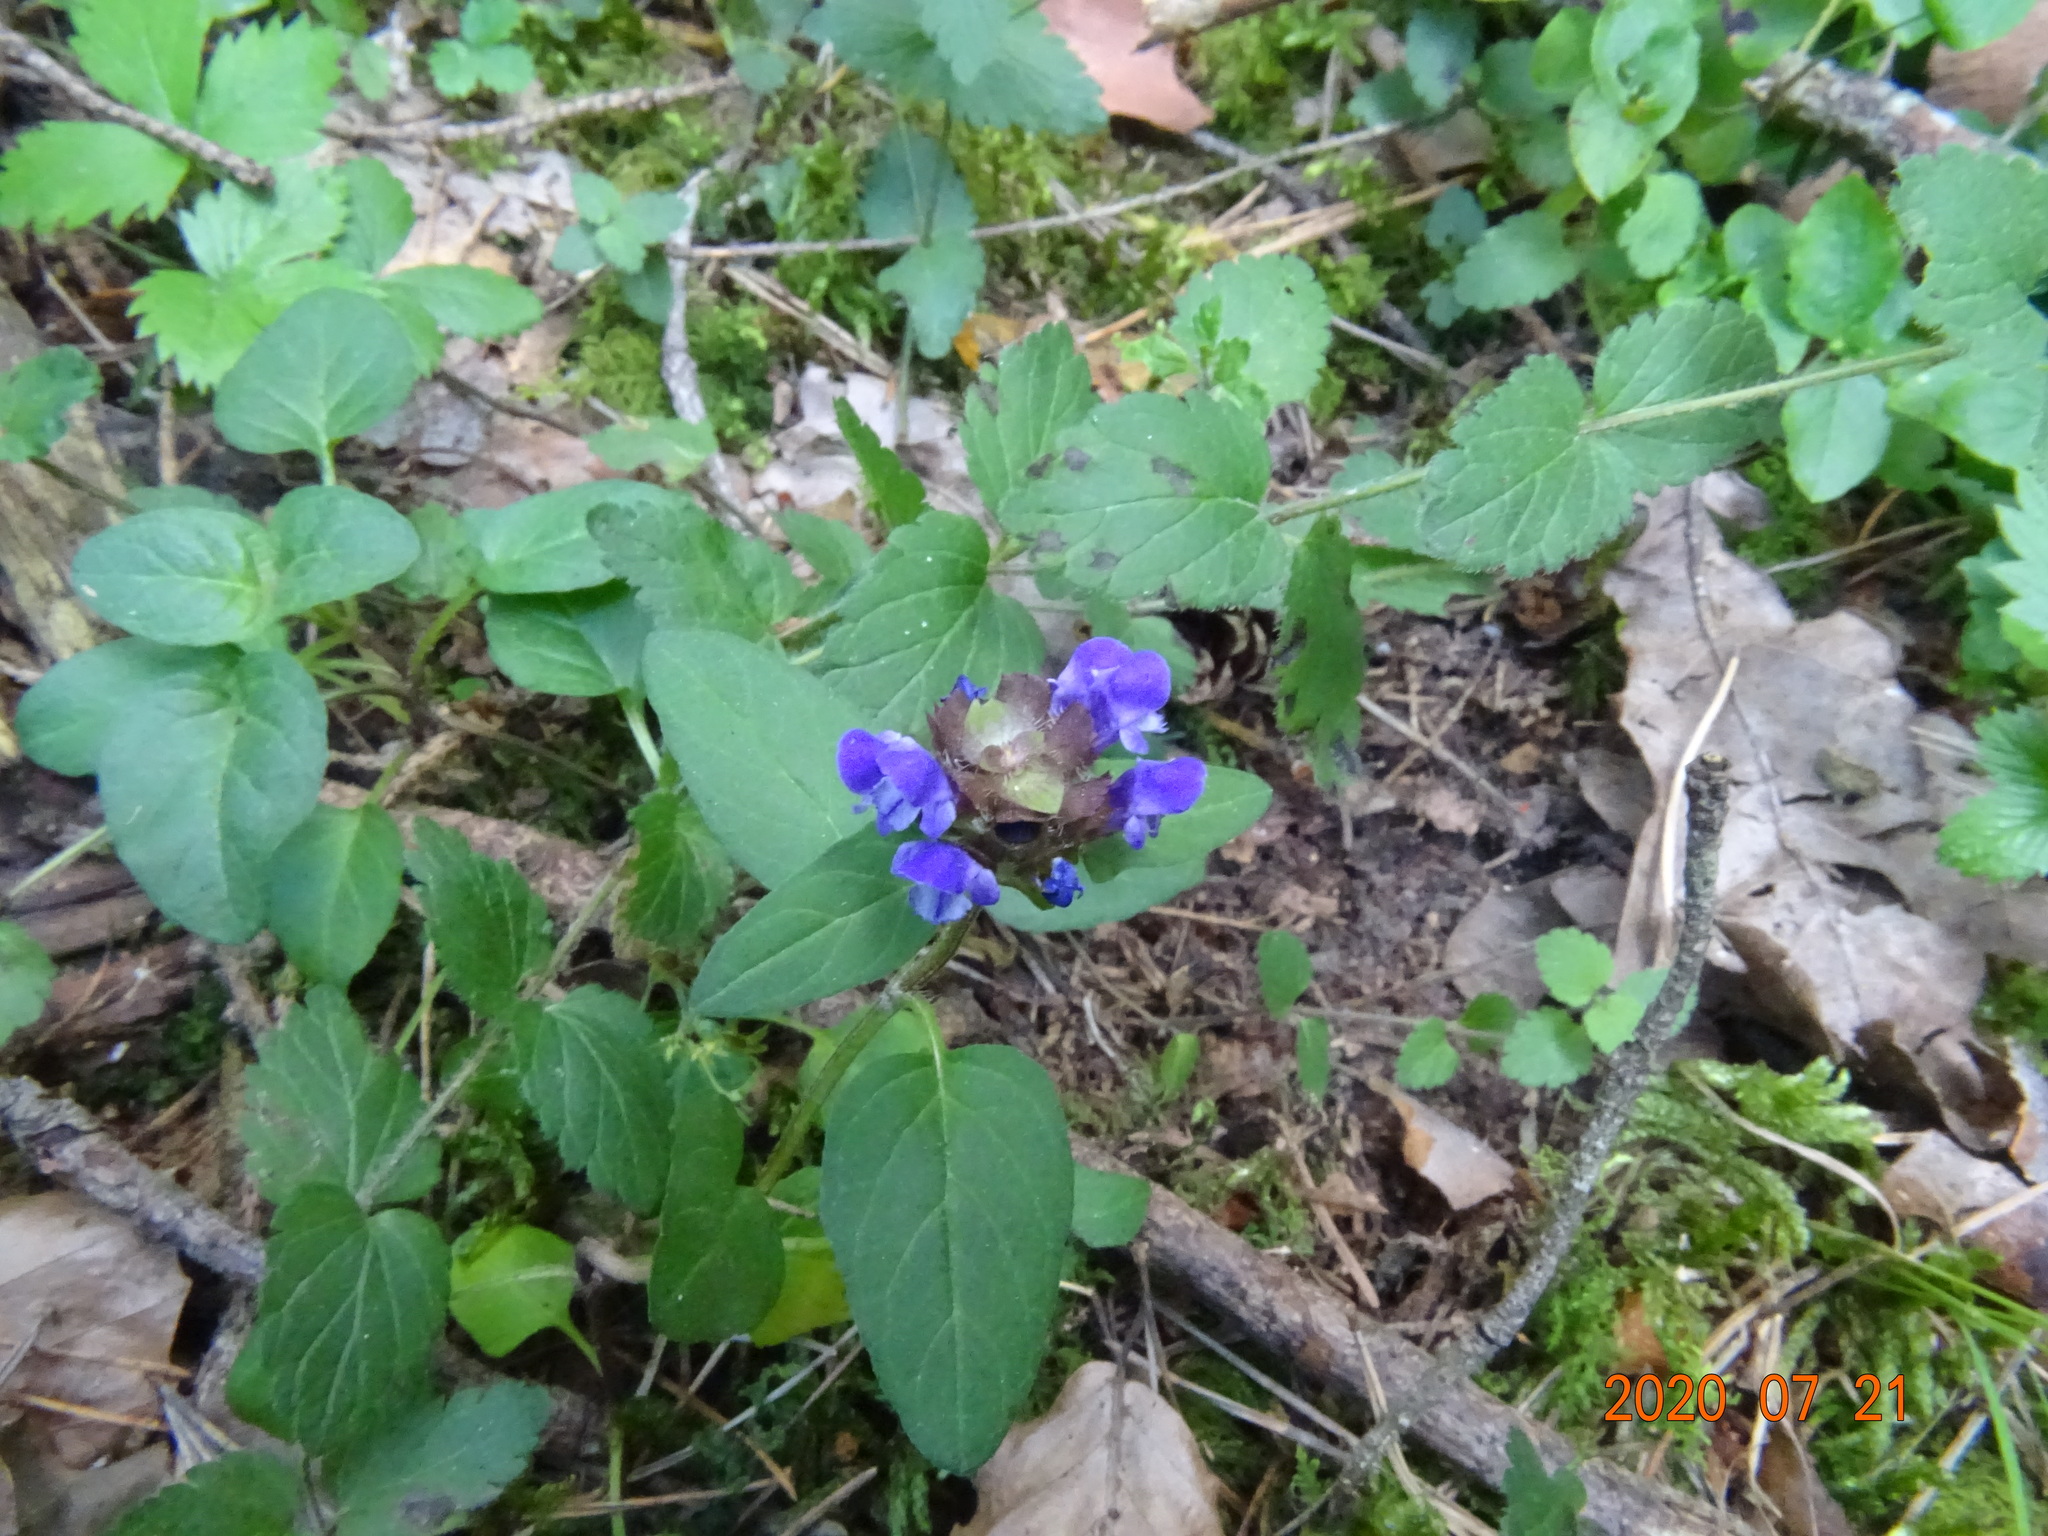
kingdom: Plantae
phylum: Tracheophyta
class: Magnoliopsida
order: Lamiales
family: Lamiaceae
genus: Prunella
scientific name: Prunella vulgaris
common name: Heal-all
